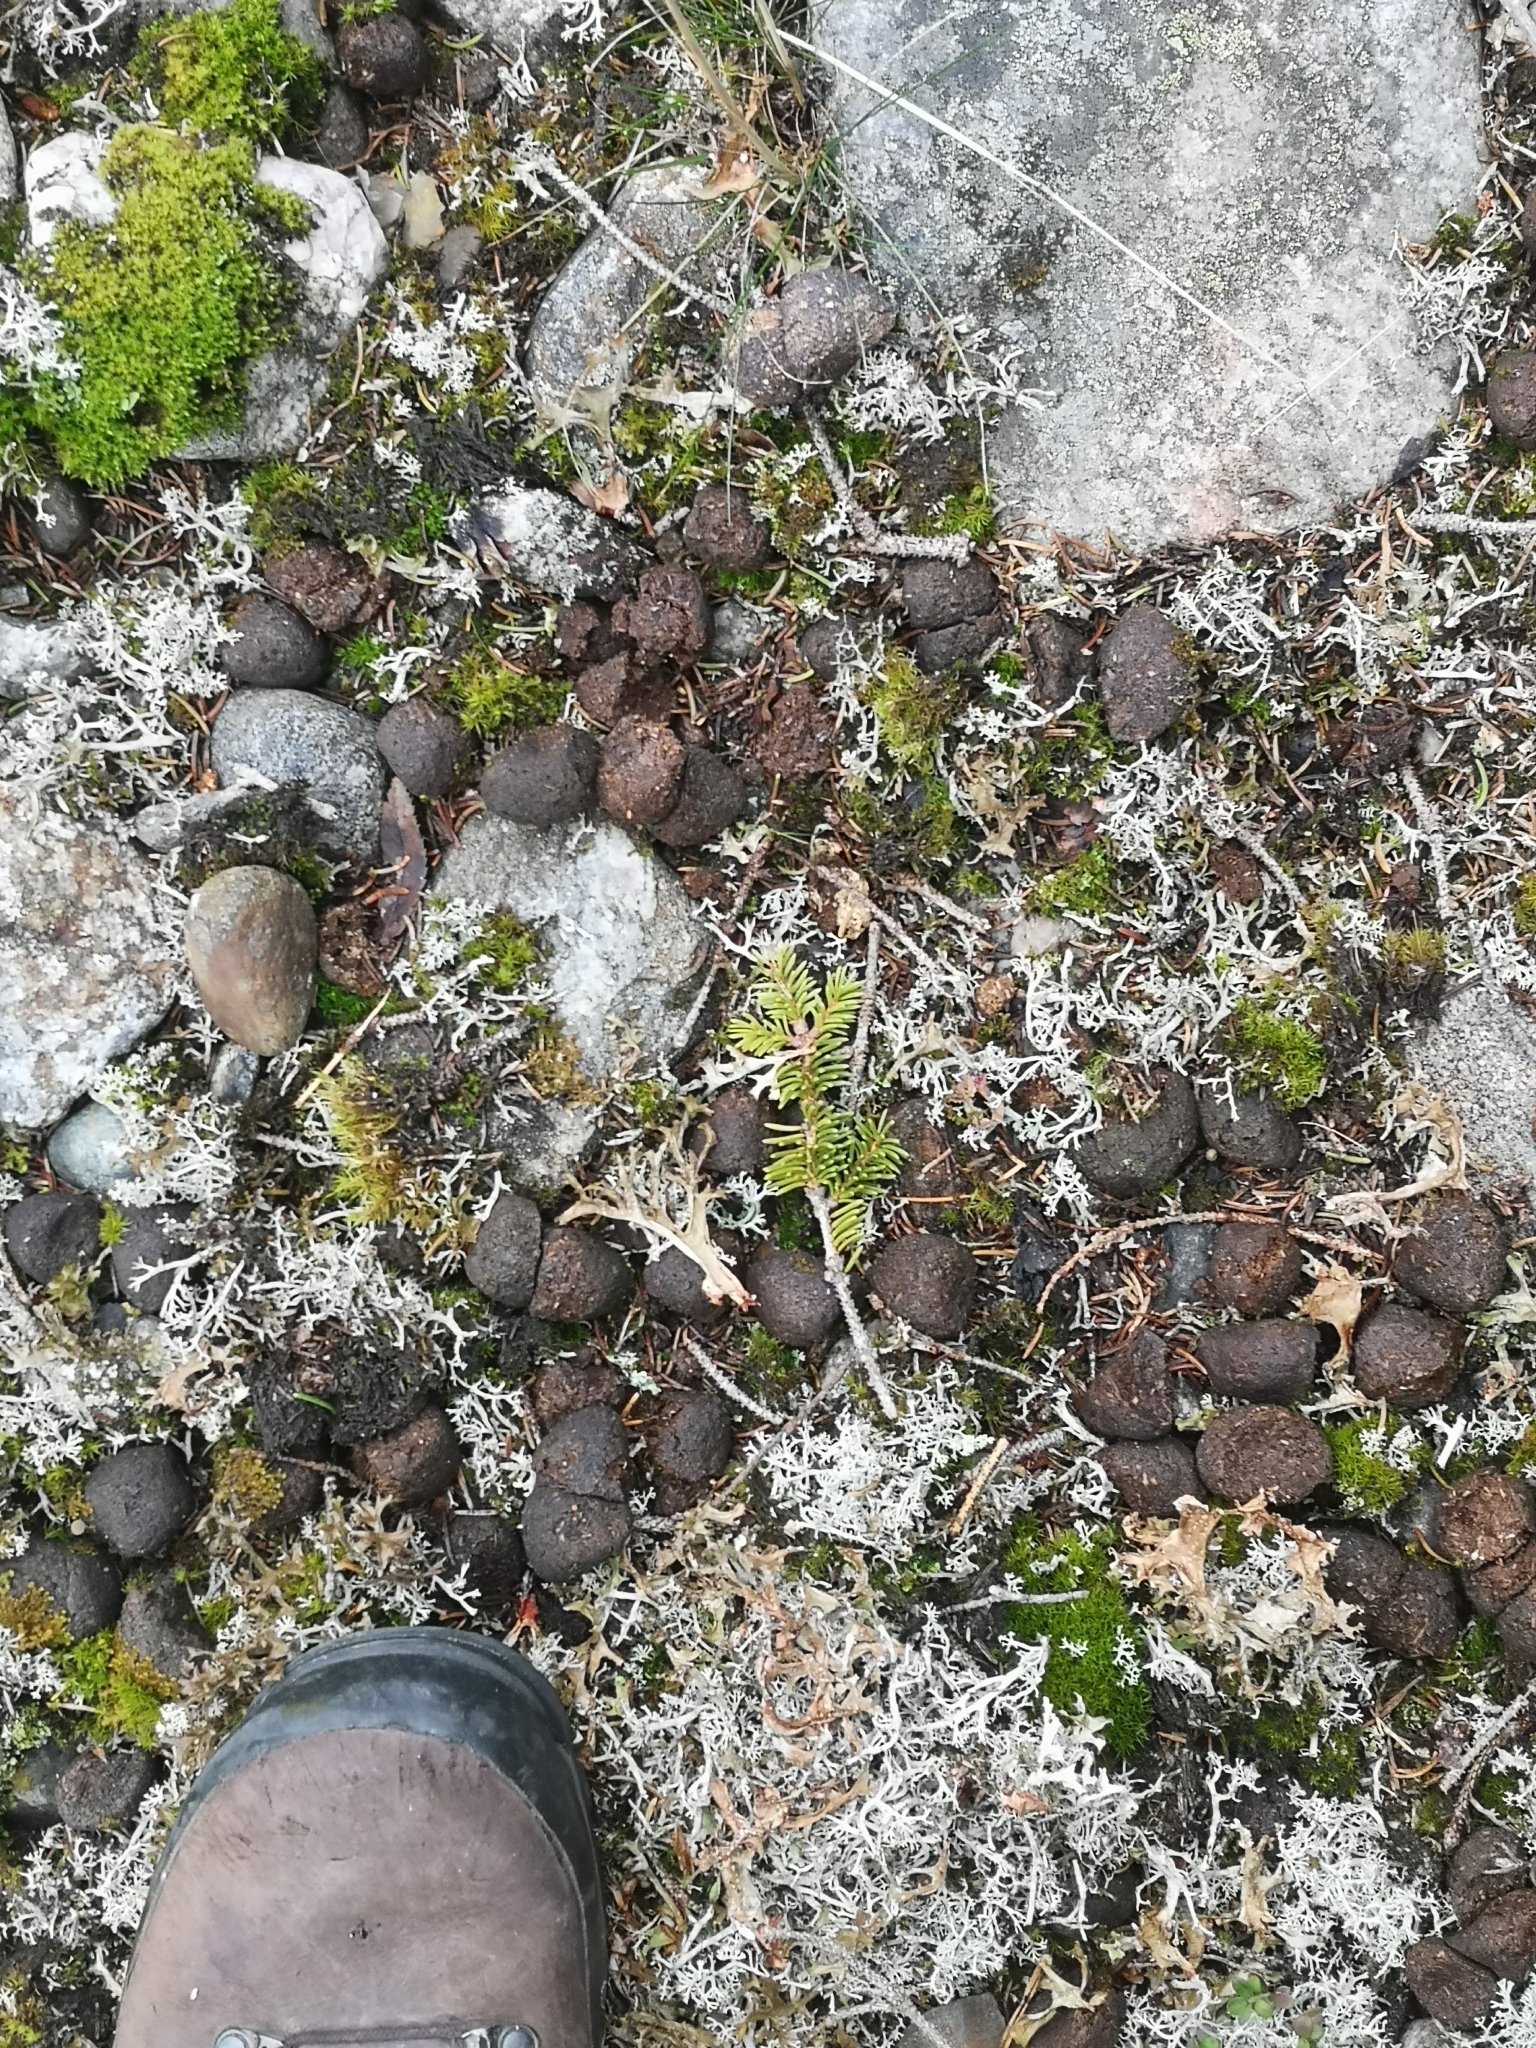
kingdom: Animalia
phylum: Chordata
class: Mammalia
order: Artiodactyla
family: Cervidae
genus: Alces
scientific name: Alces alces
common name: Moose
